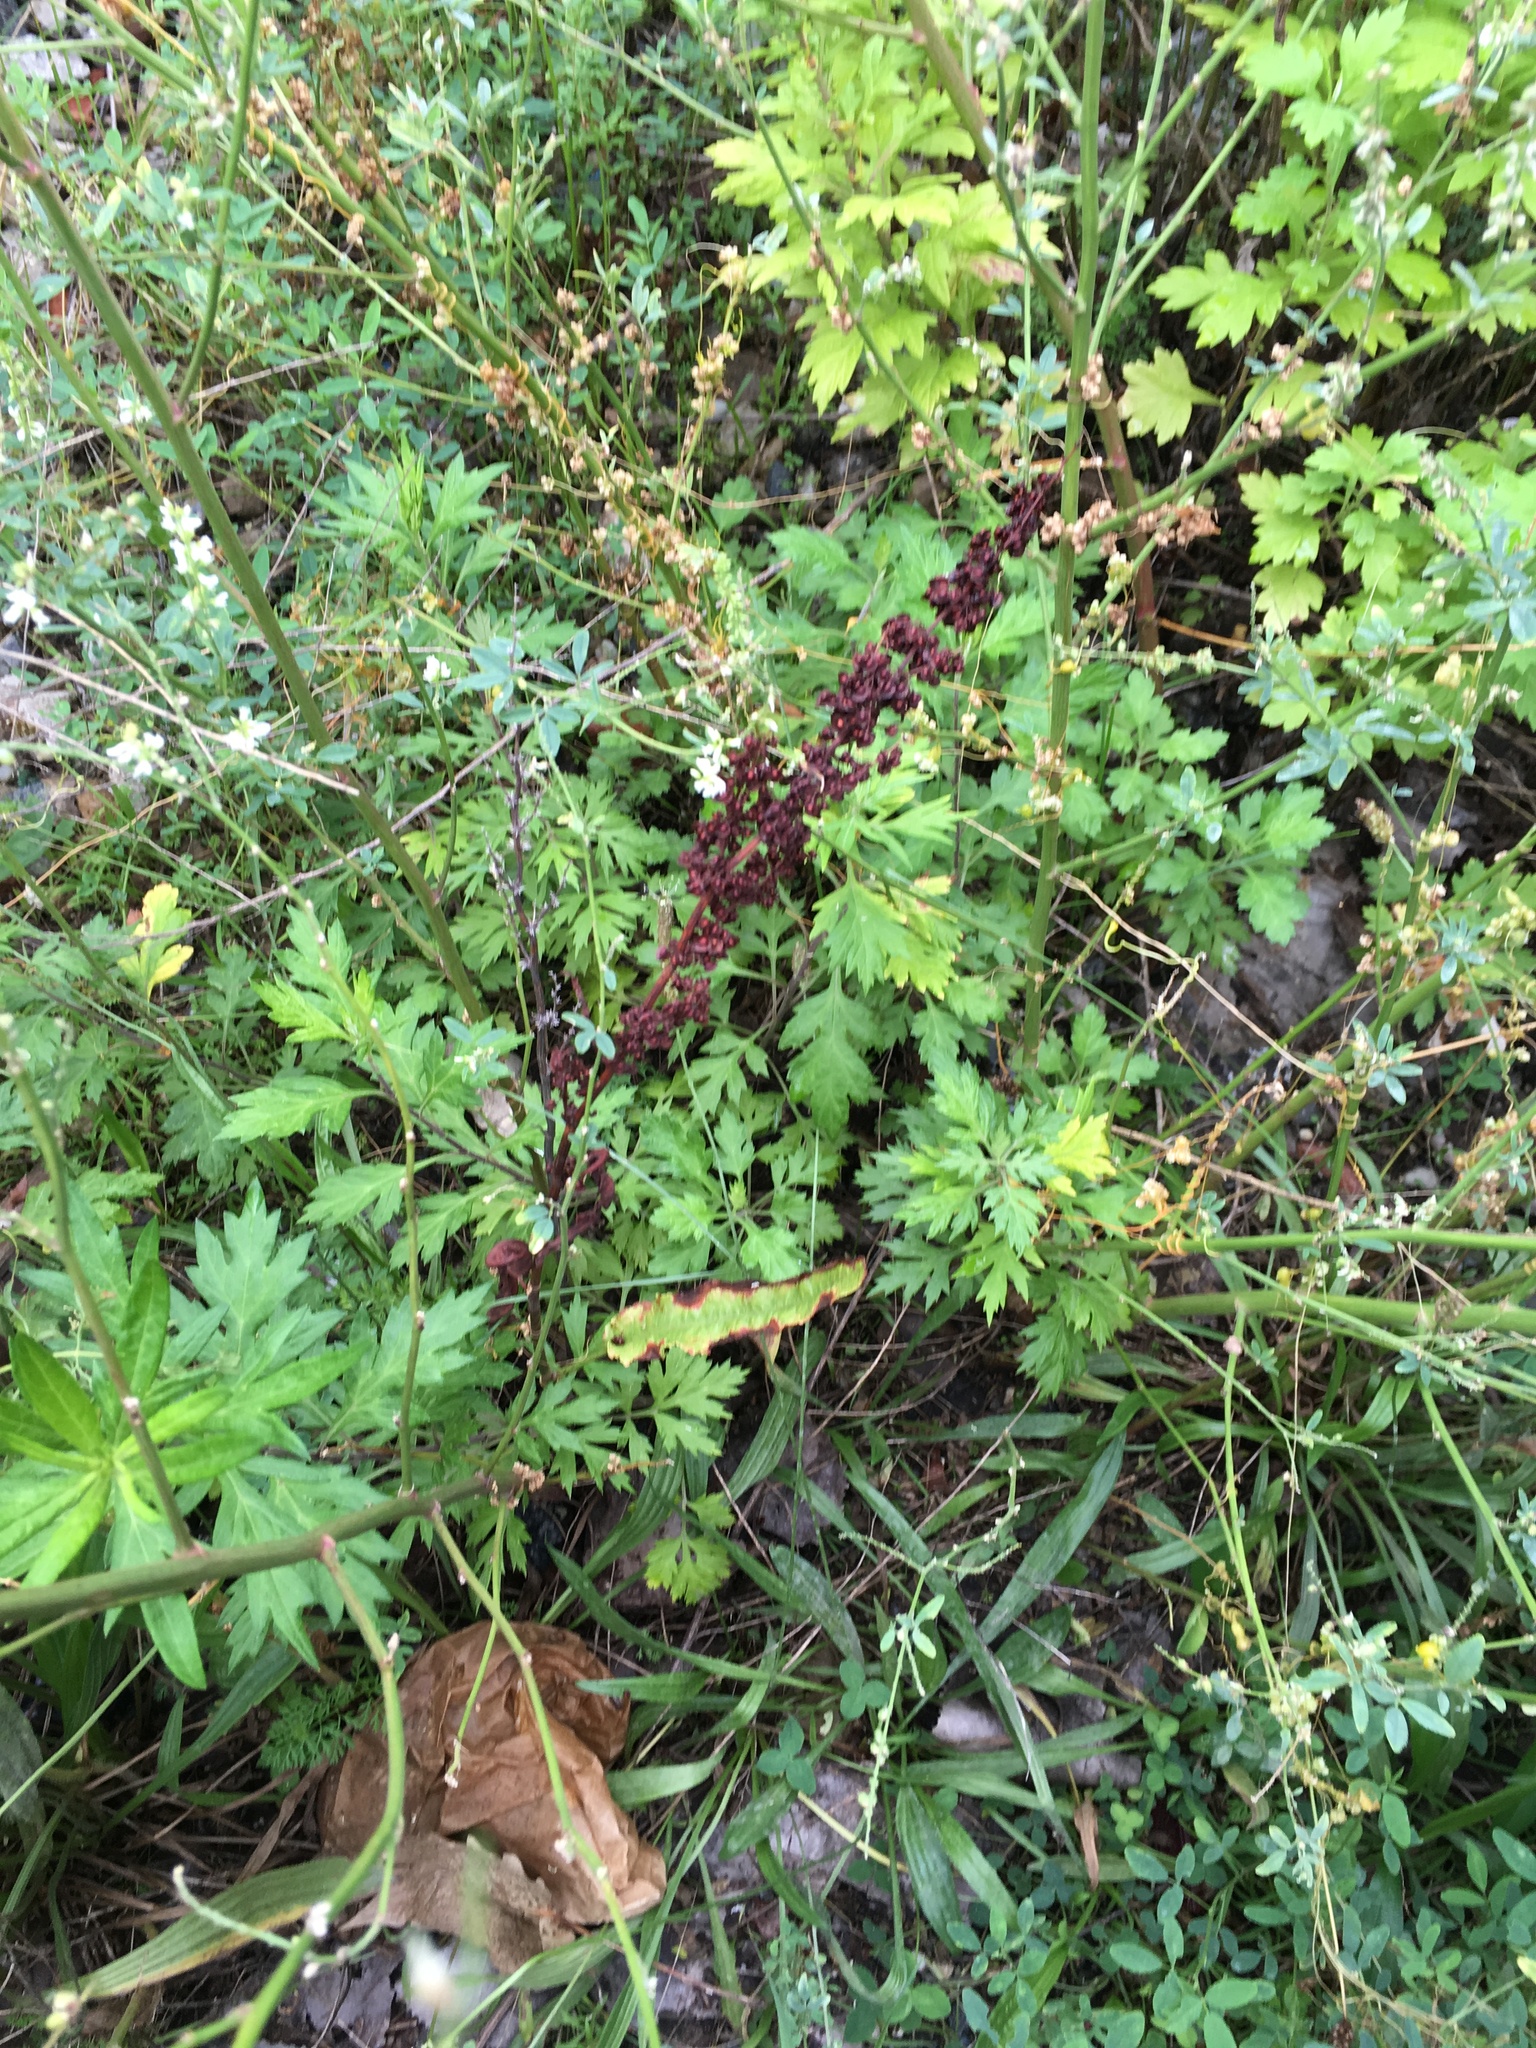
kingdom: Plantae
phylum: Tracheophyta
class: Magnoliopsida
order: Caryophyllales
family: Polygonaceae
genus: Rumex
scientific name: Rumex crispus
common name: Curled dock
